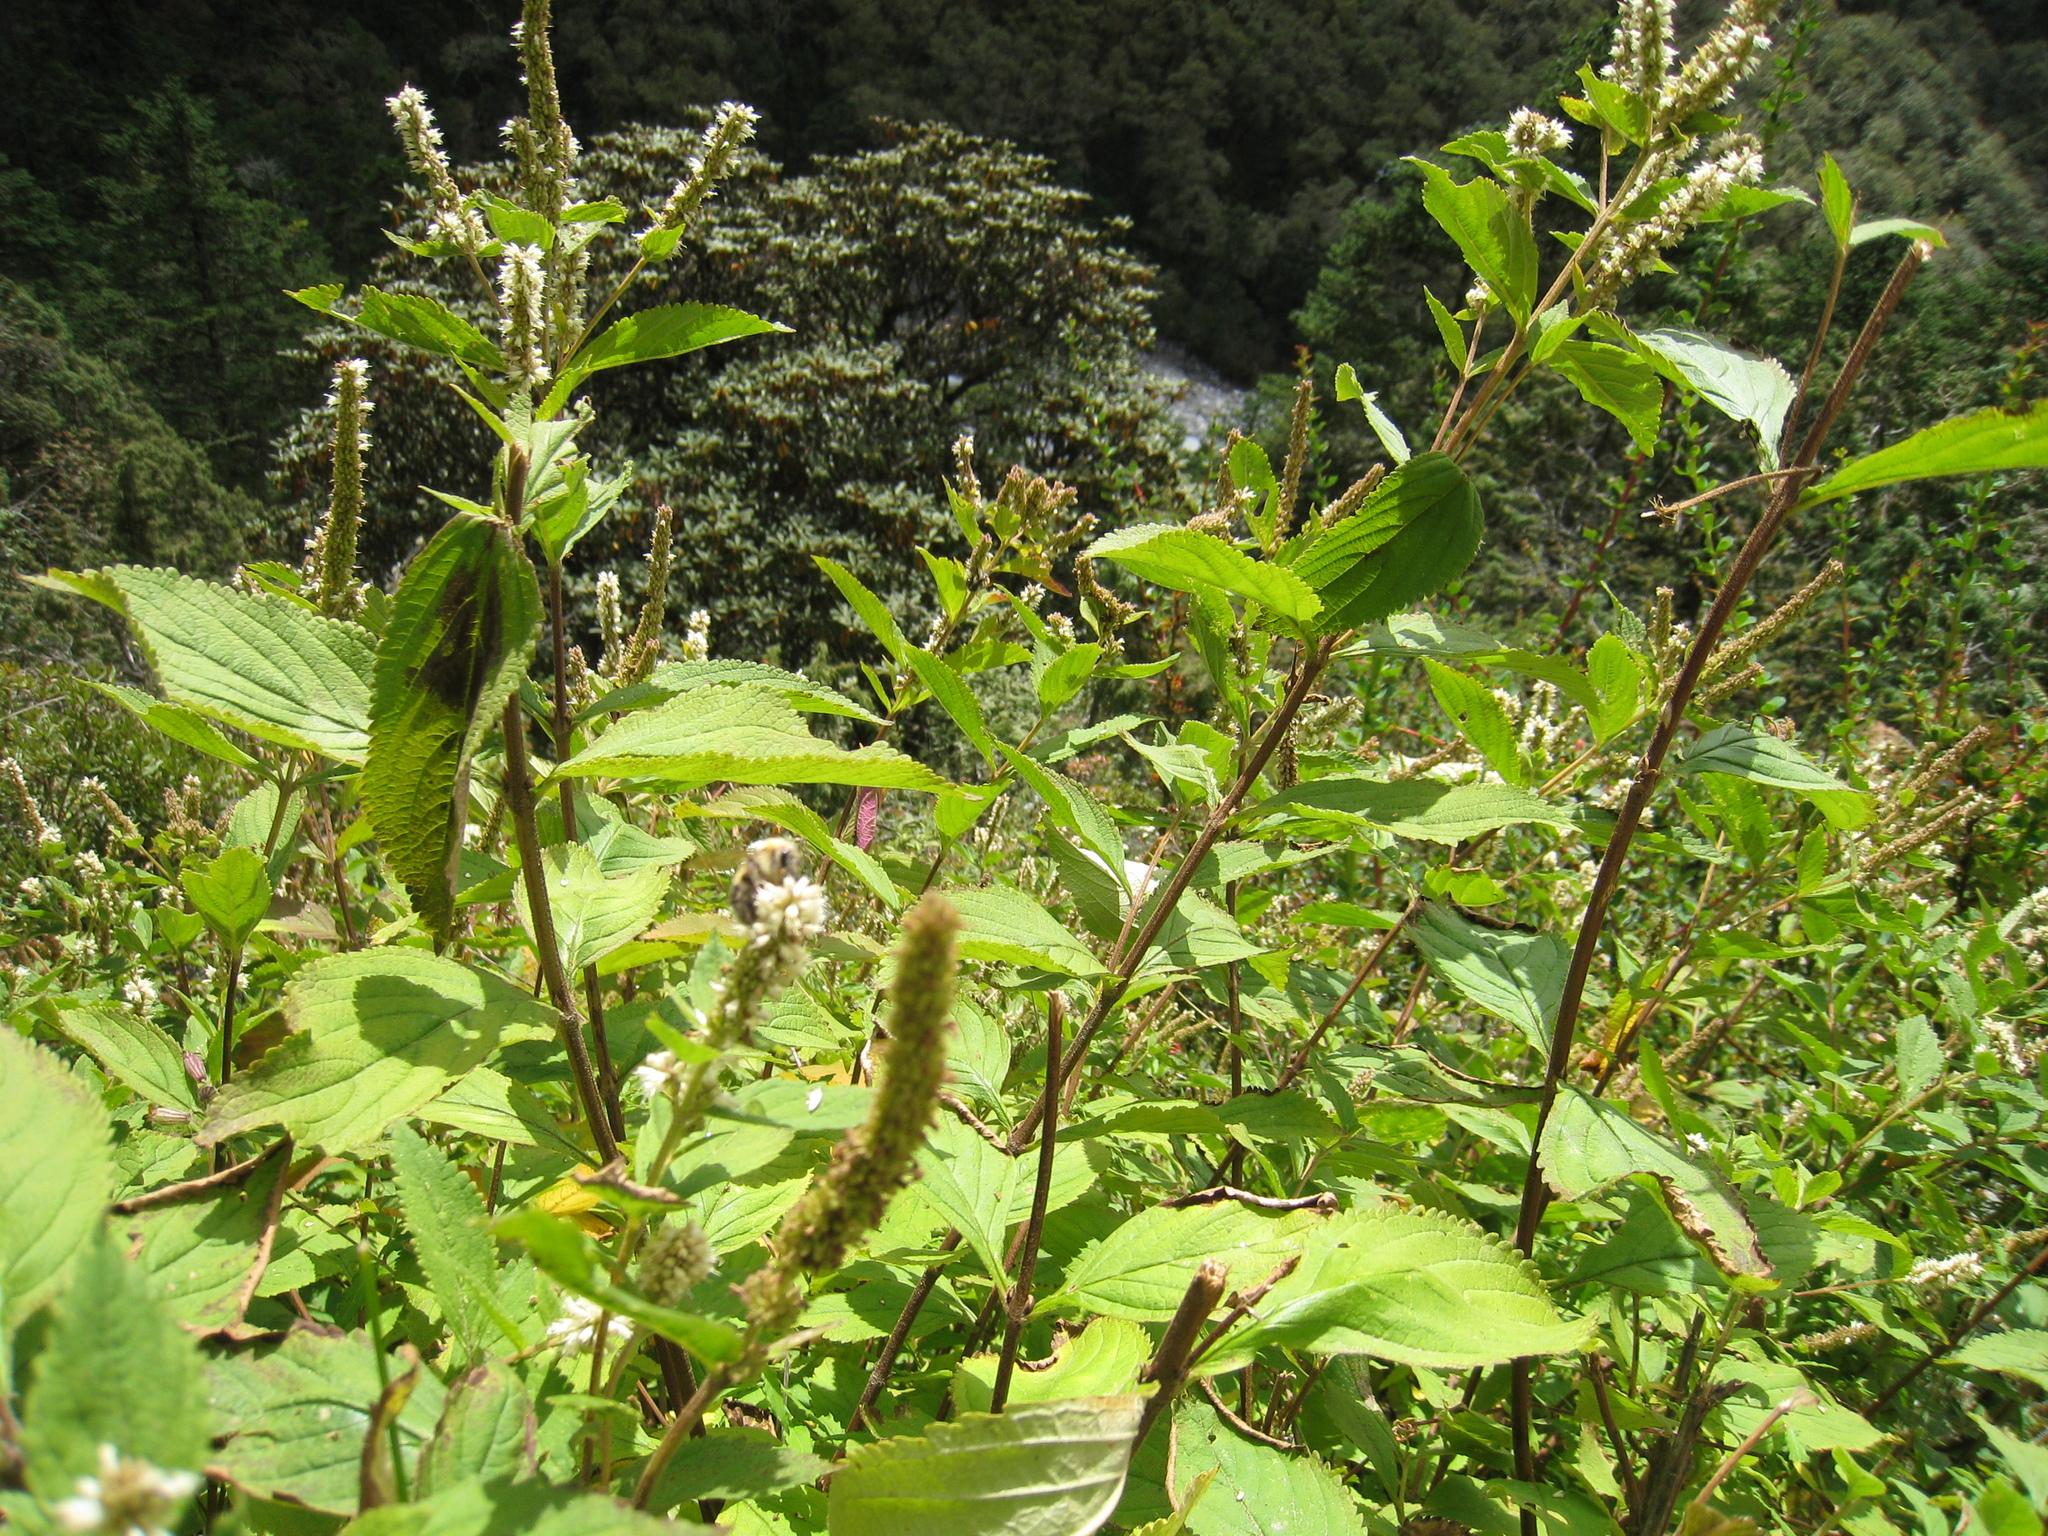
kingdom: Plantae
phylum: Tracheophyta
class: Magnoliopsida
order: Lamiales
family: Lamiaceae
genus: Elsholtzia
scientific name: Elsholtzia fruticosa
